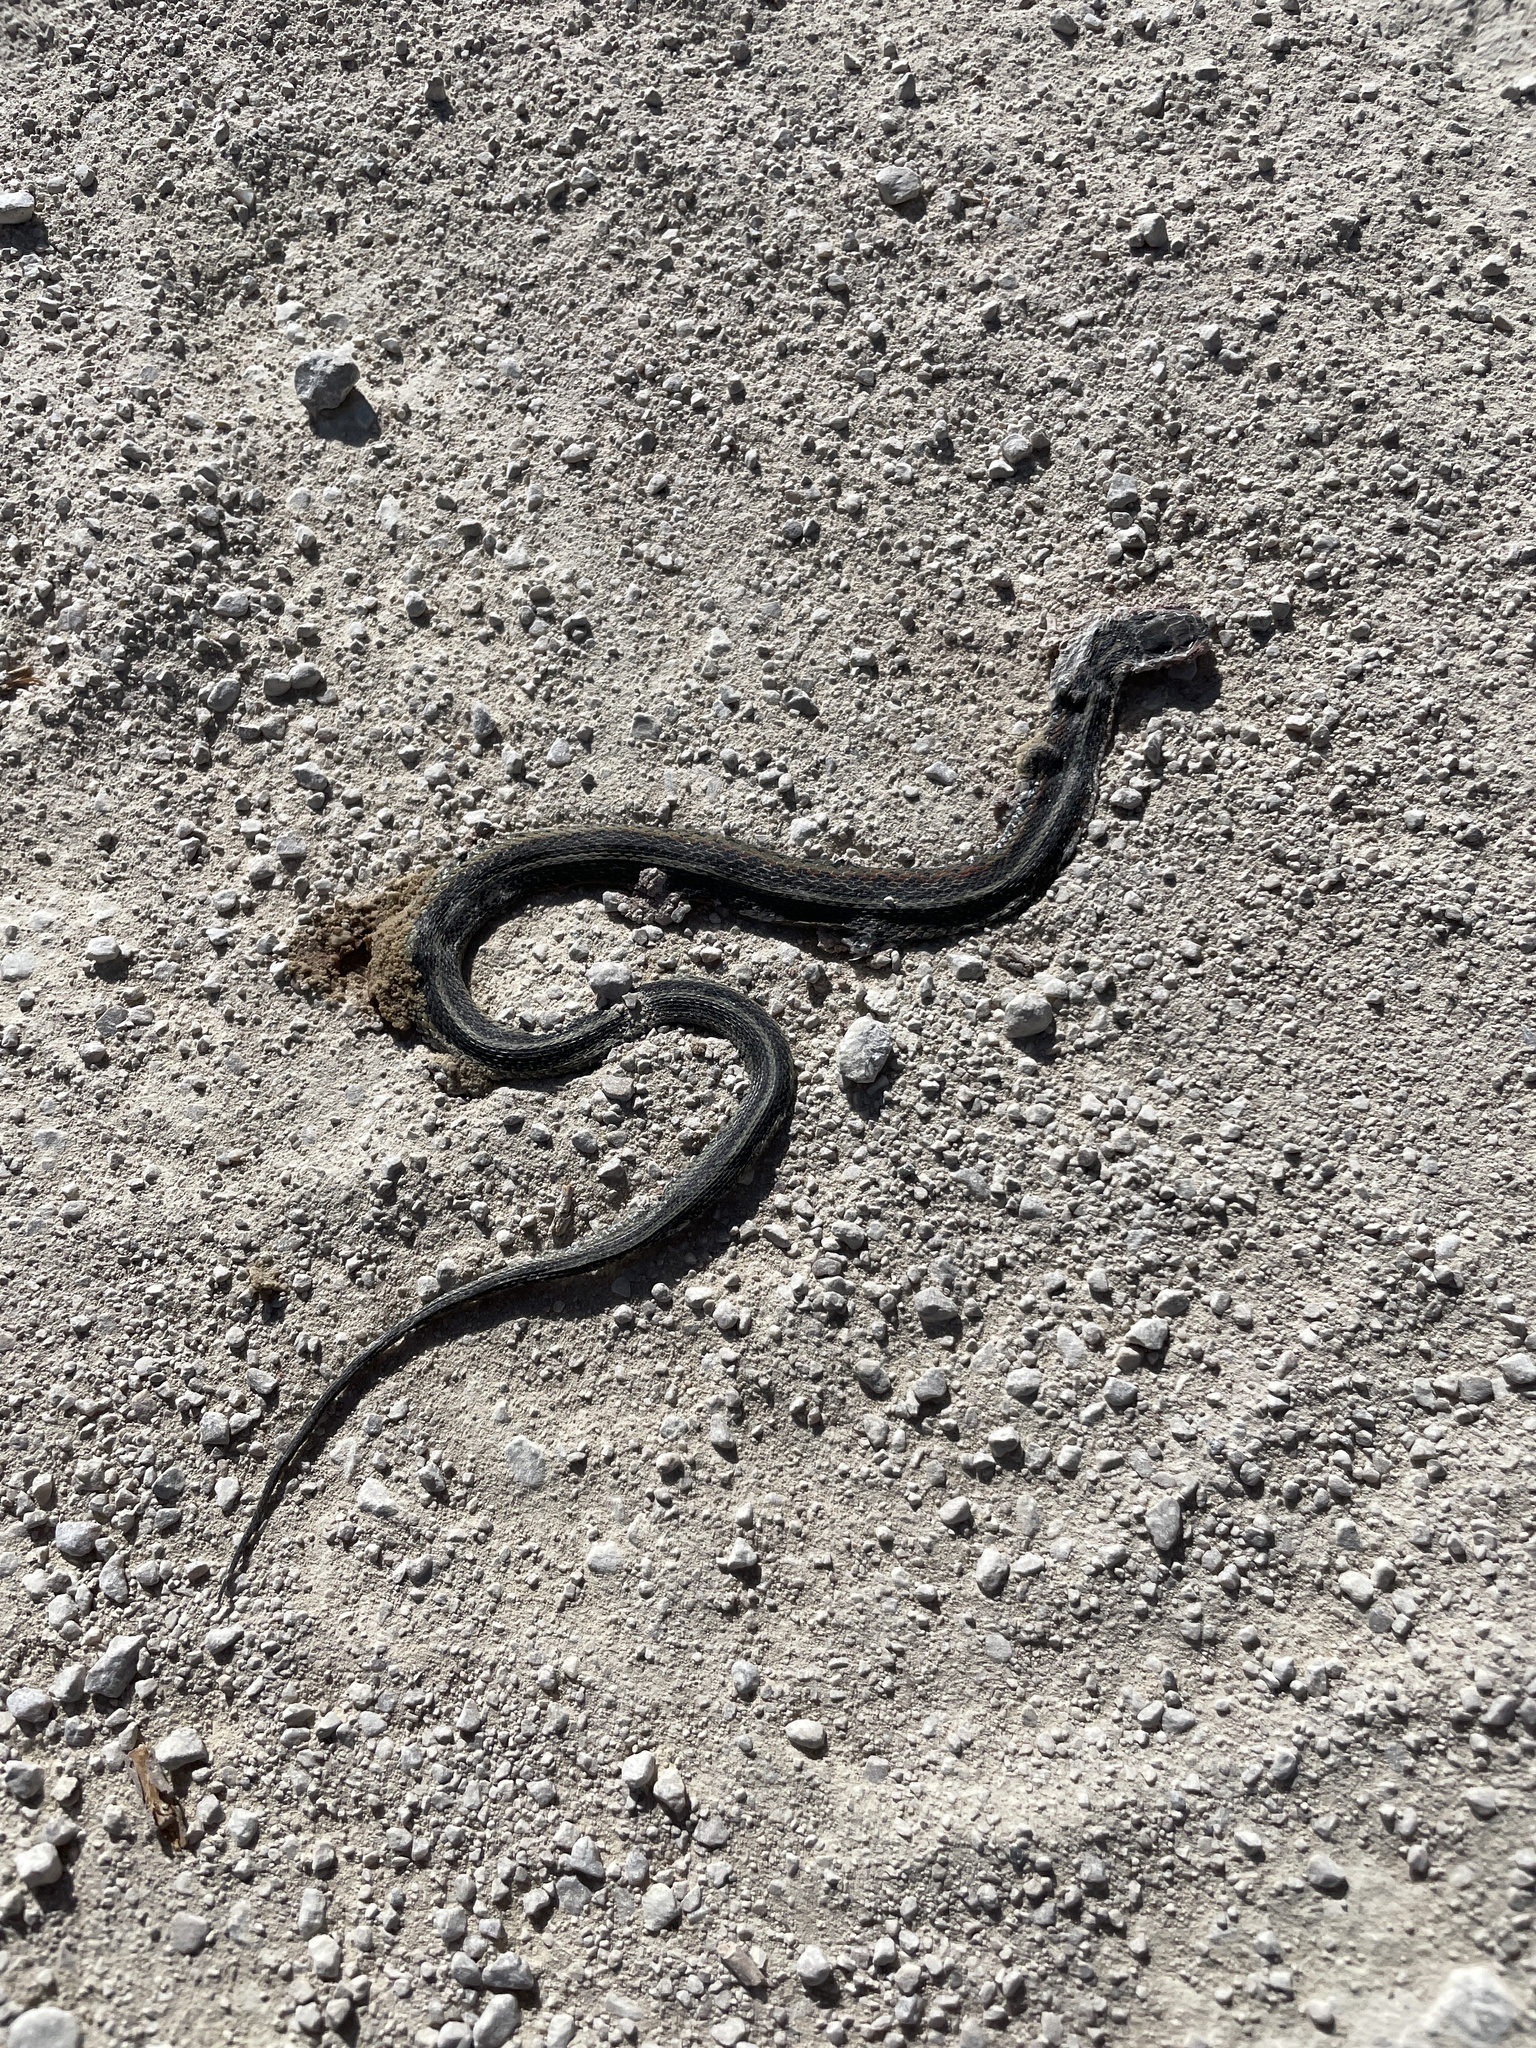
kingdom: Animalia
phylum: Chordata
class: Squamata
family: Colubridae
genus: Thamnophis
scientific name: Thamnophis sirtalis
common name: Common garter snake
